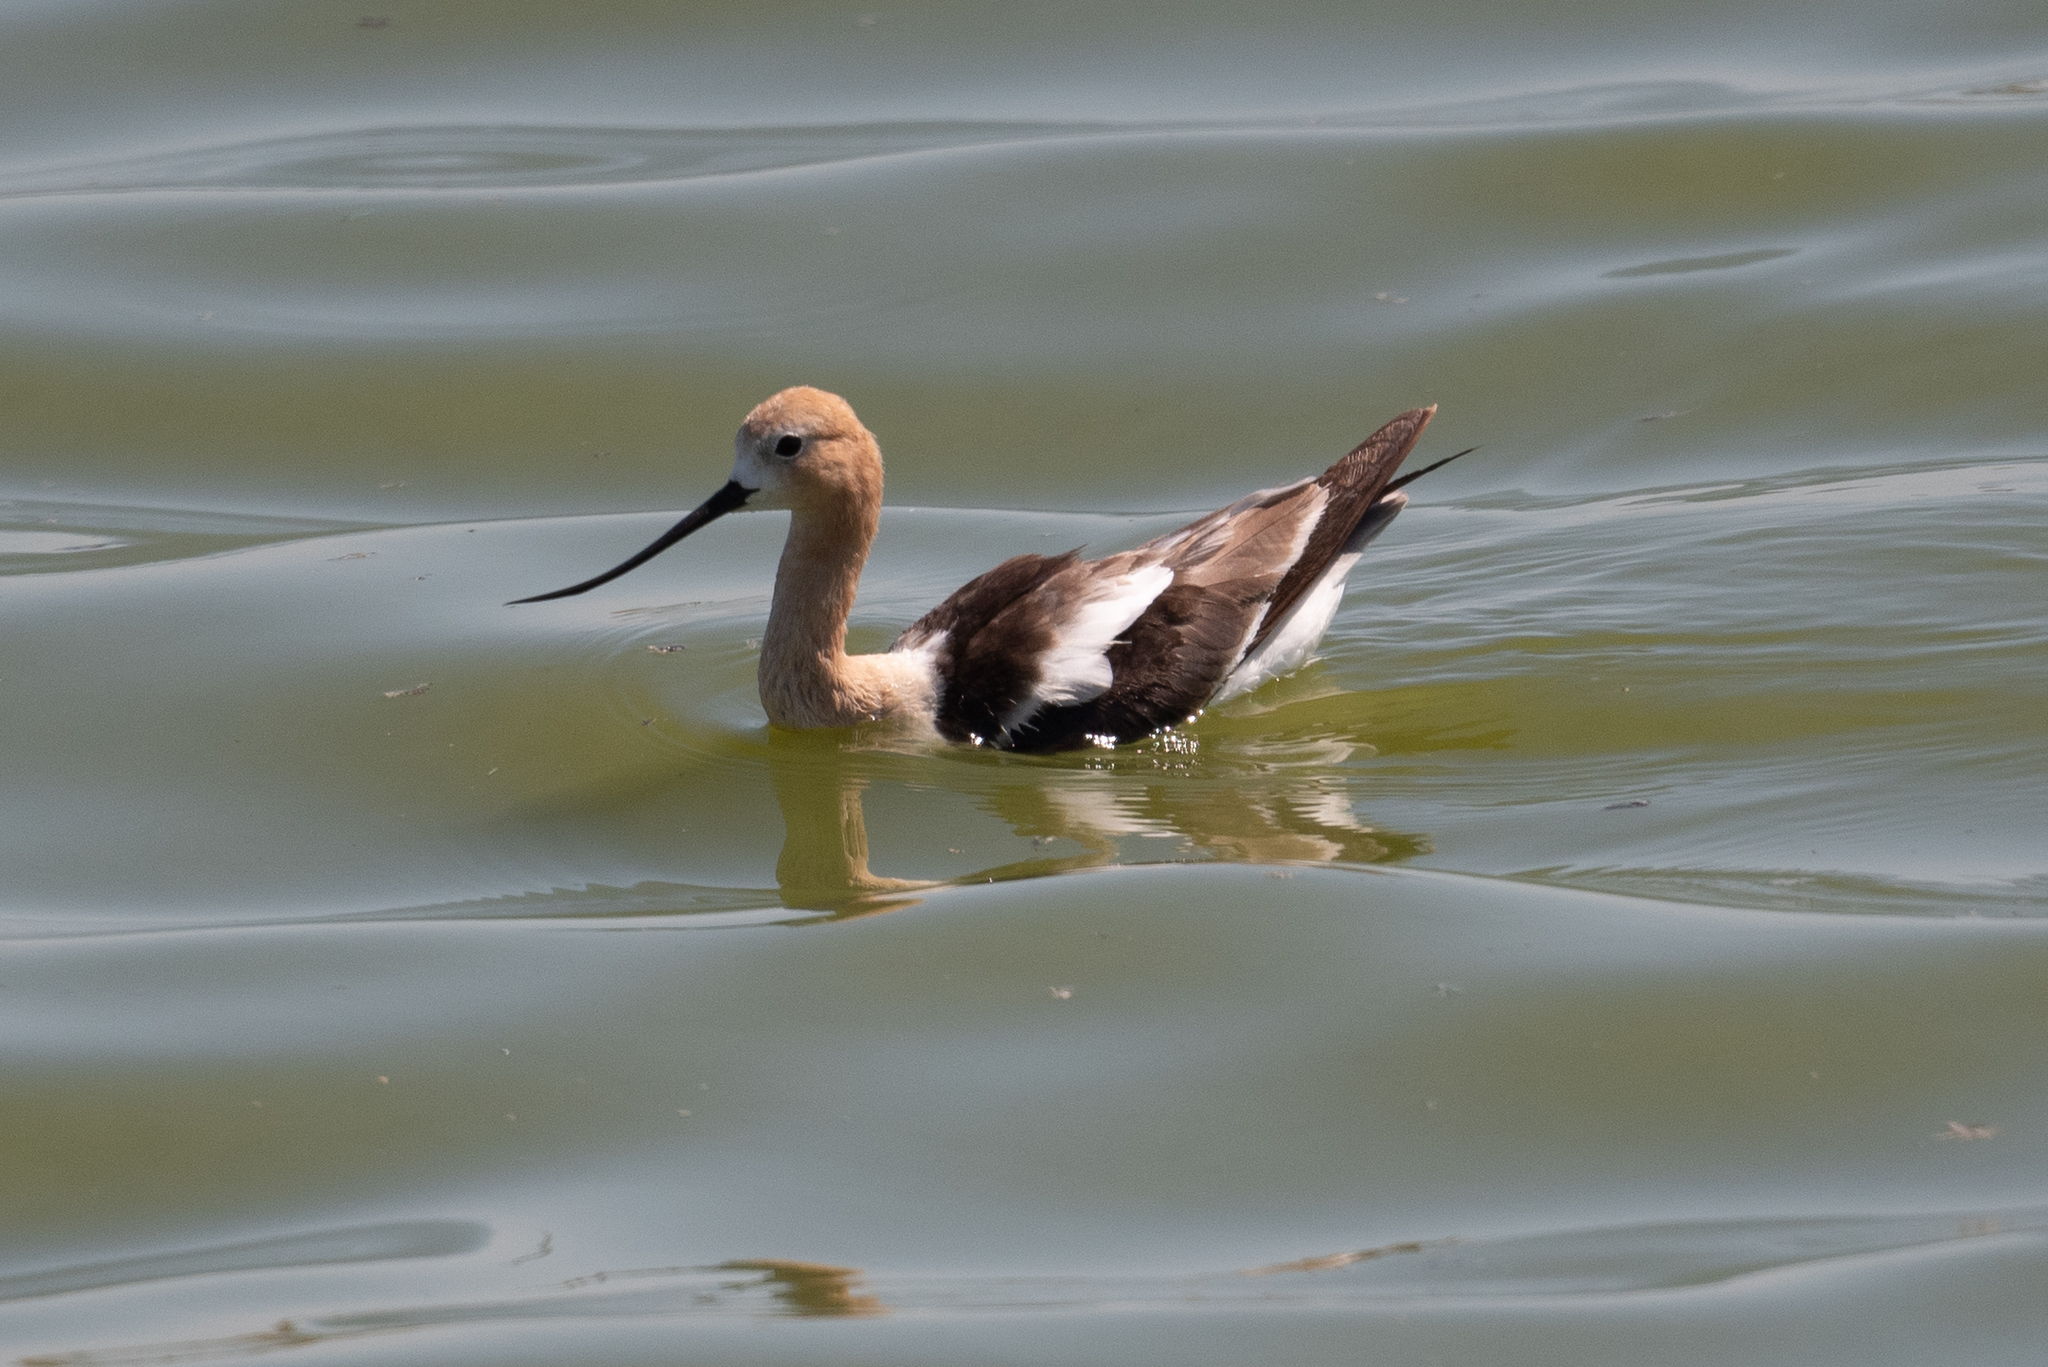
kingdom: Animalia
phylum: Chordata
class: Aves
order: Charadriiformes
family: Recurvirostridae
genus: Recurvirostra
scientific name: Recurvirostra americana
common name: American avocet
